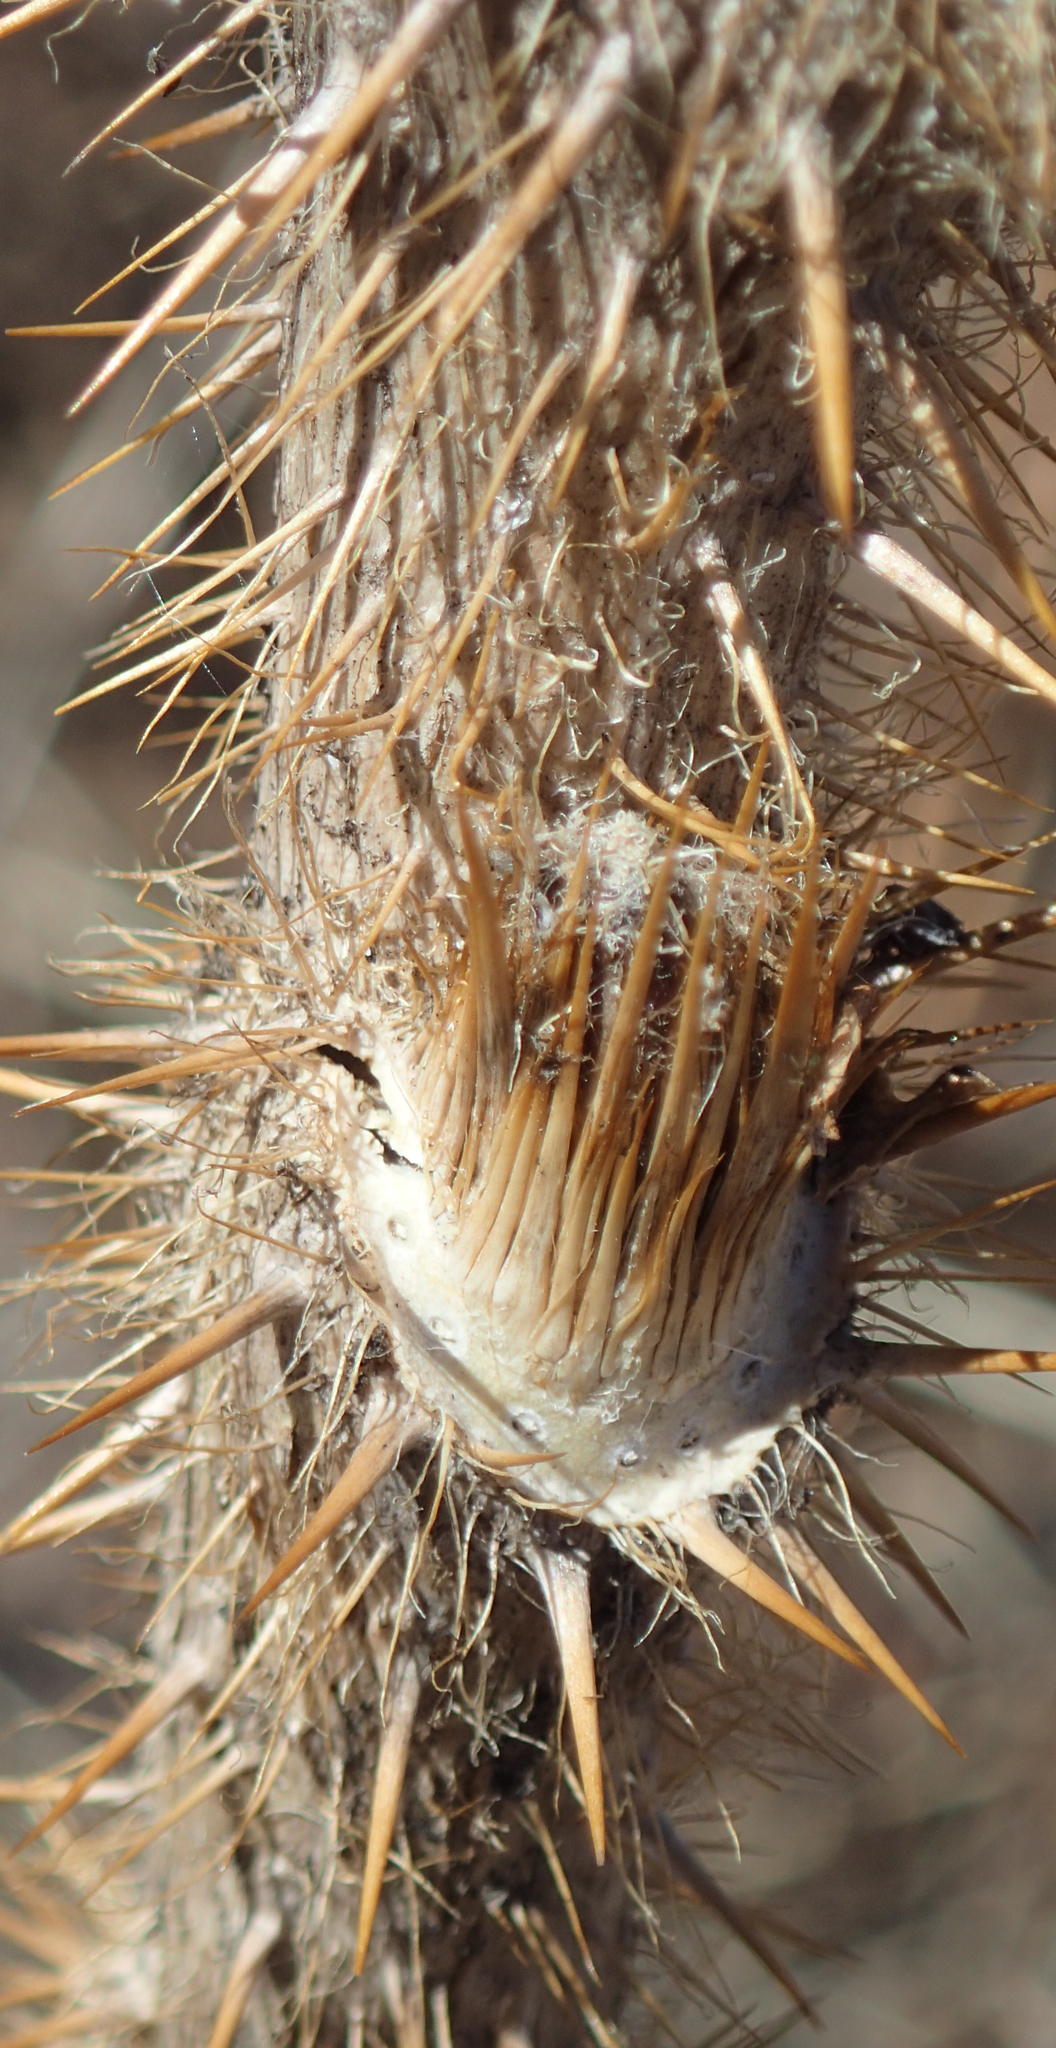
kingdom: Plantae
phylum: Tracheophyta
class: Magnoliopsida
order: Apiales
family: Araliaceae
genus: Oplopanax
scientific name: Oplopanax horridus
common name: Devil's walking-stick
